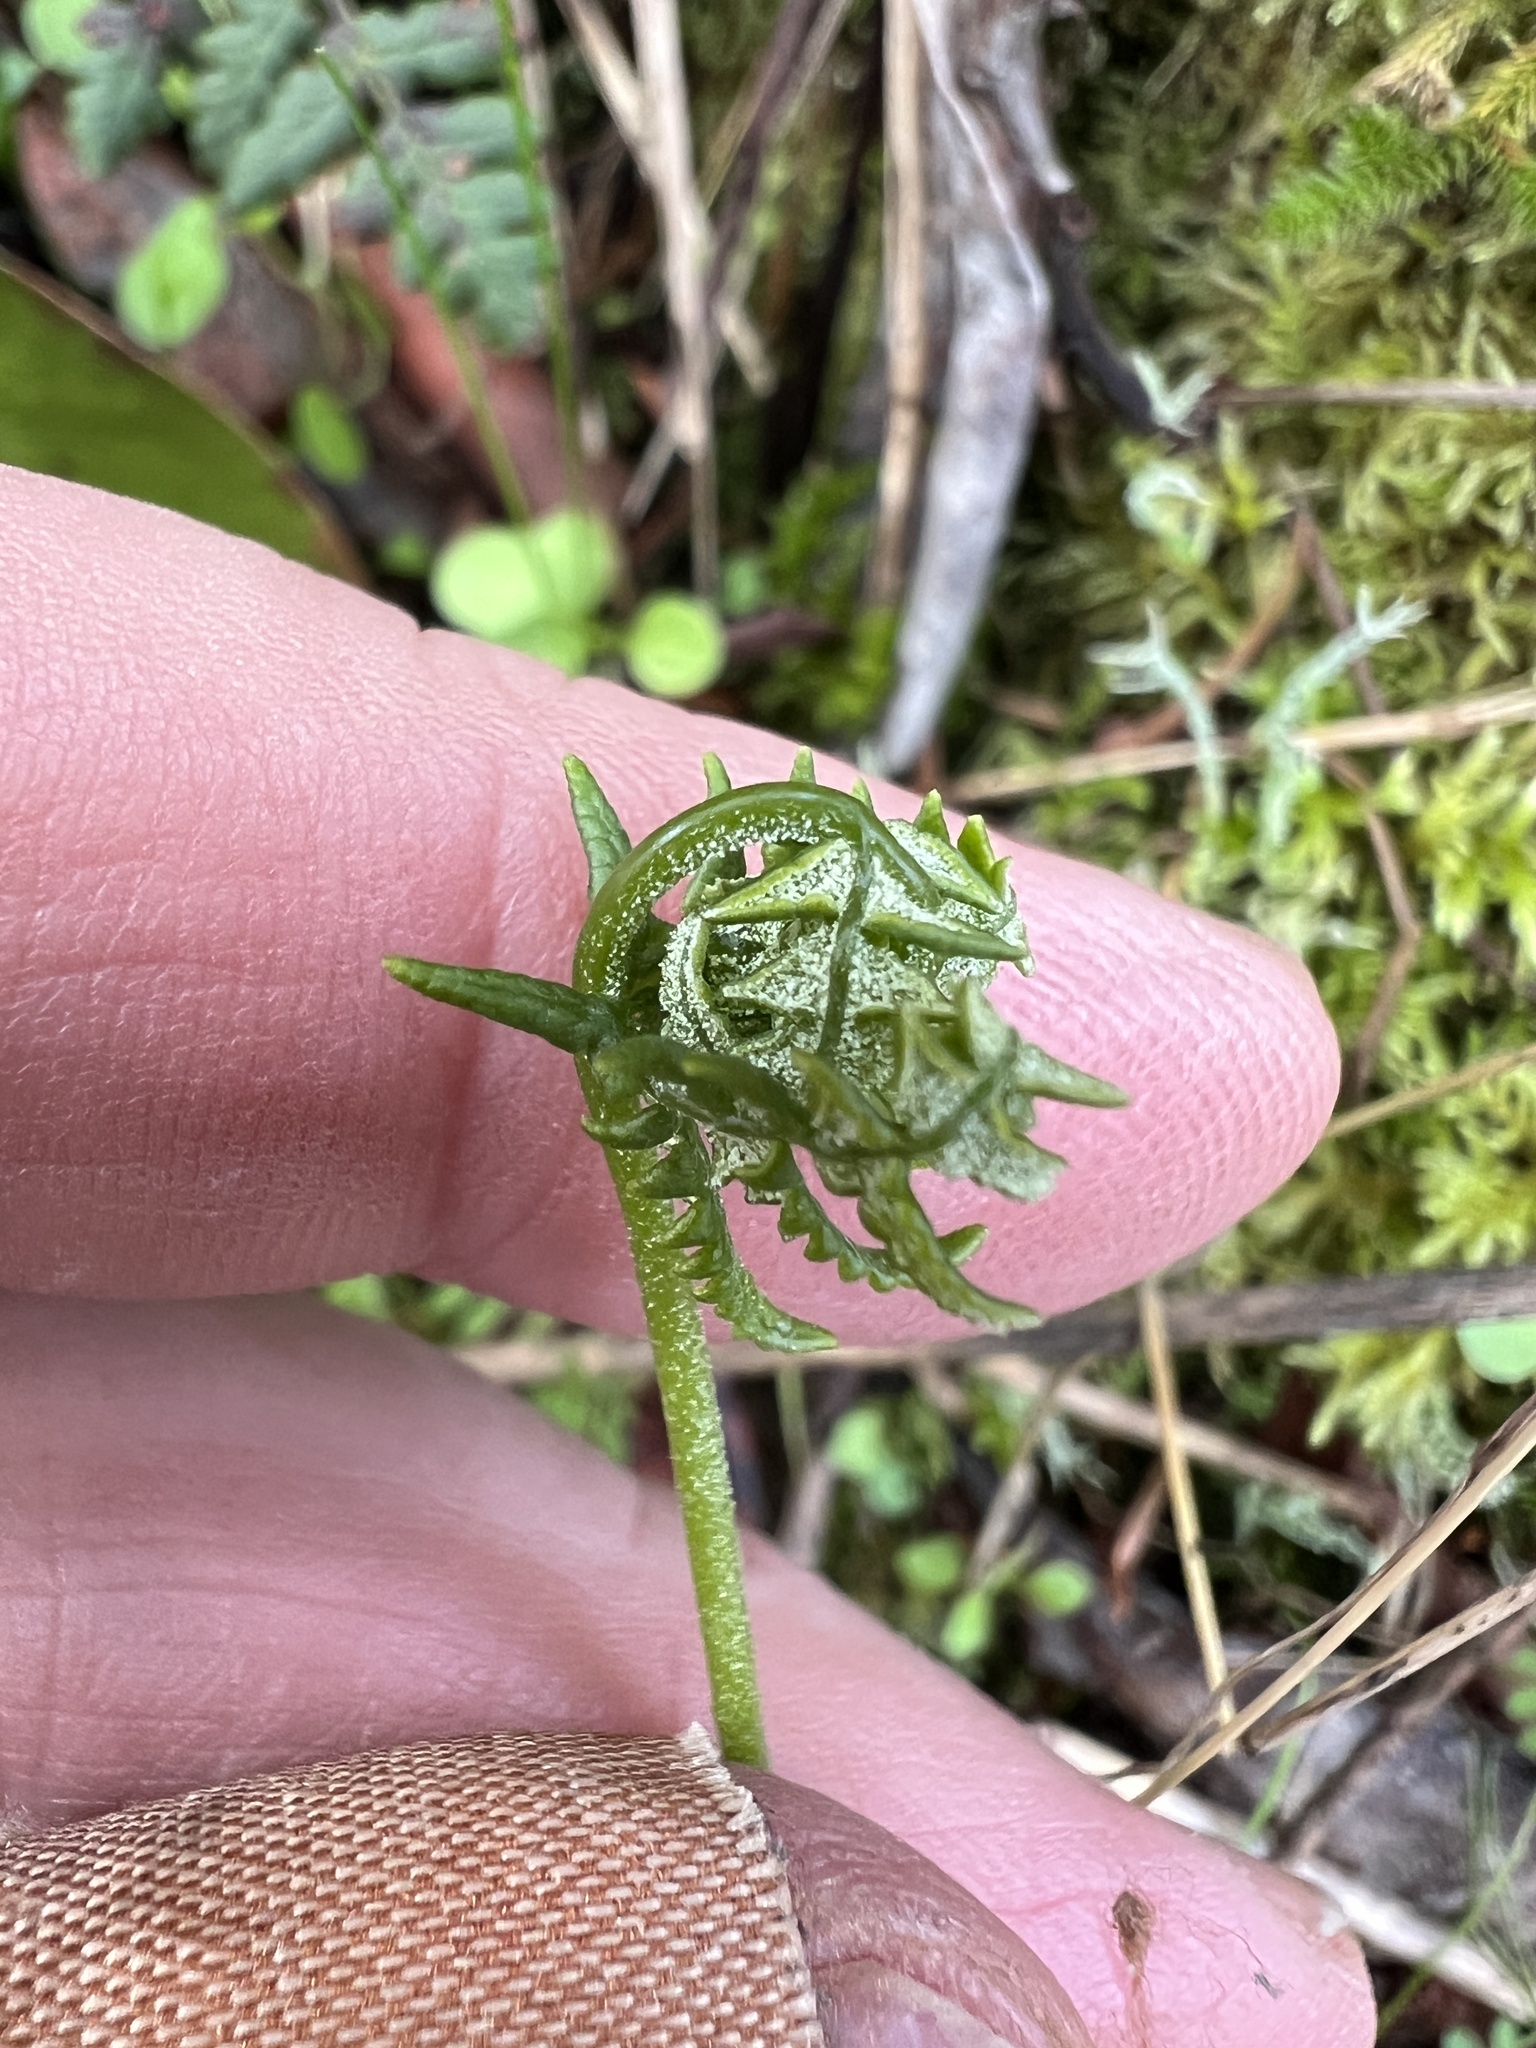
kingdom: Plantae
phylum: Tracheophyta
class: Polypodiopsida
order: Polypodiales
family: Pteridaceae
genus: Pentagramma
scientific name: Pentagramma triangularis
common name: Gold fern
